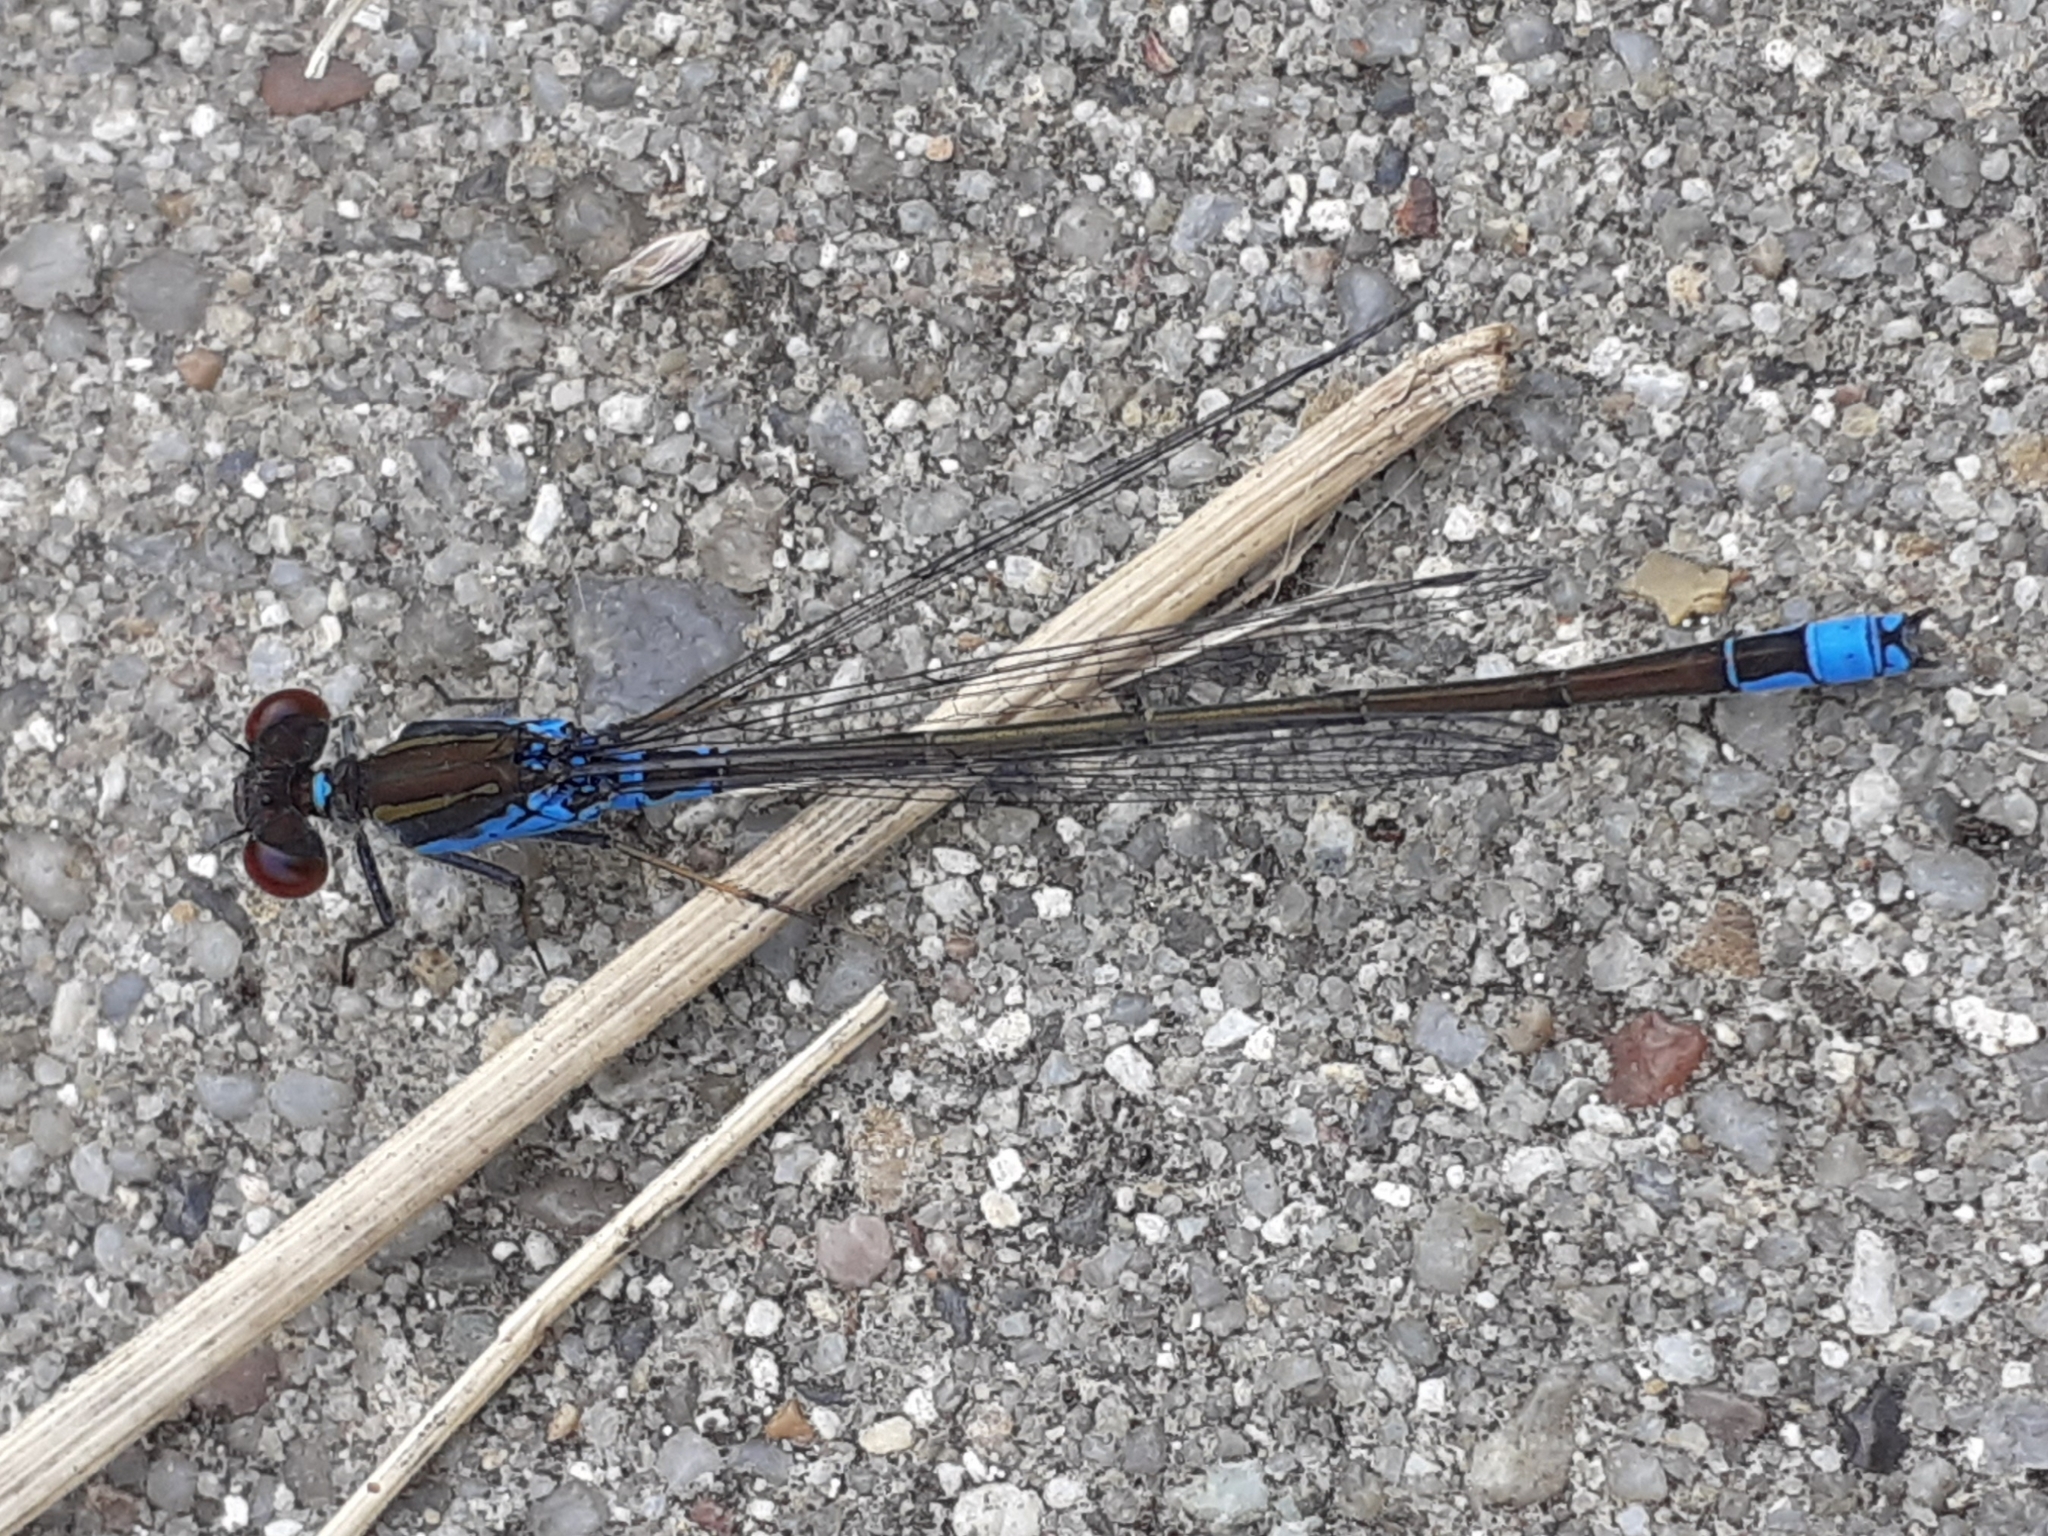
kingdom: Animalia
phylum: Arthropoda
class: Insecta
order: Odonata
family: Coenagrionidae
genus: Erythromma
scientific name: Erythromma viridulum
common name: Small red-eyed damselfly
